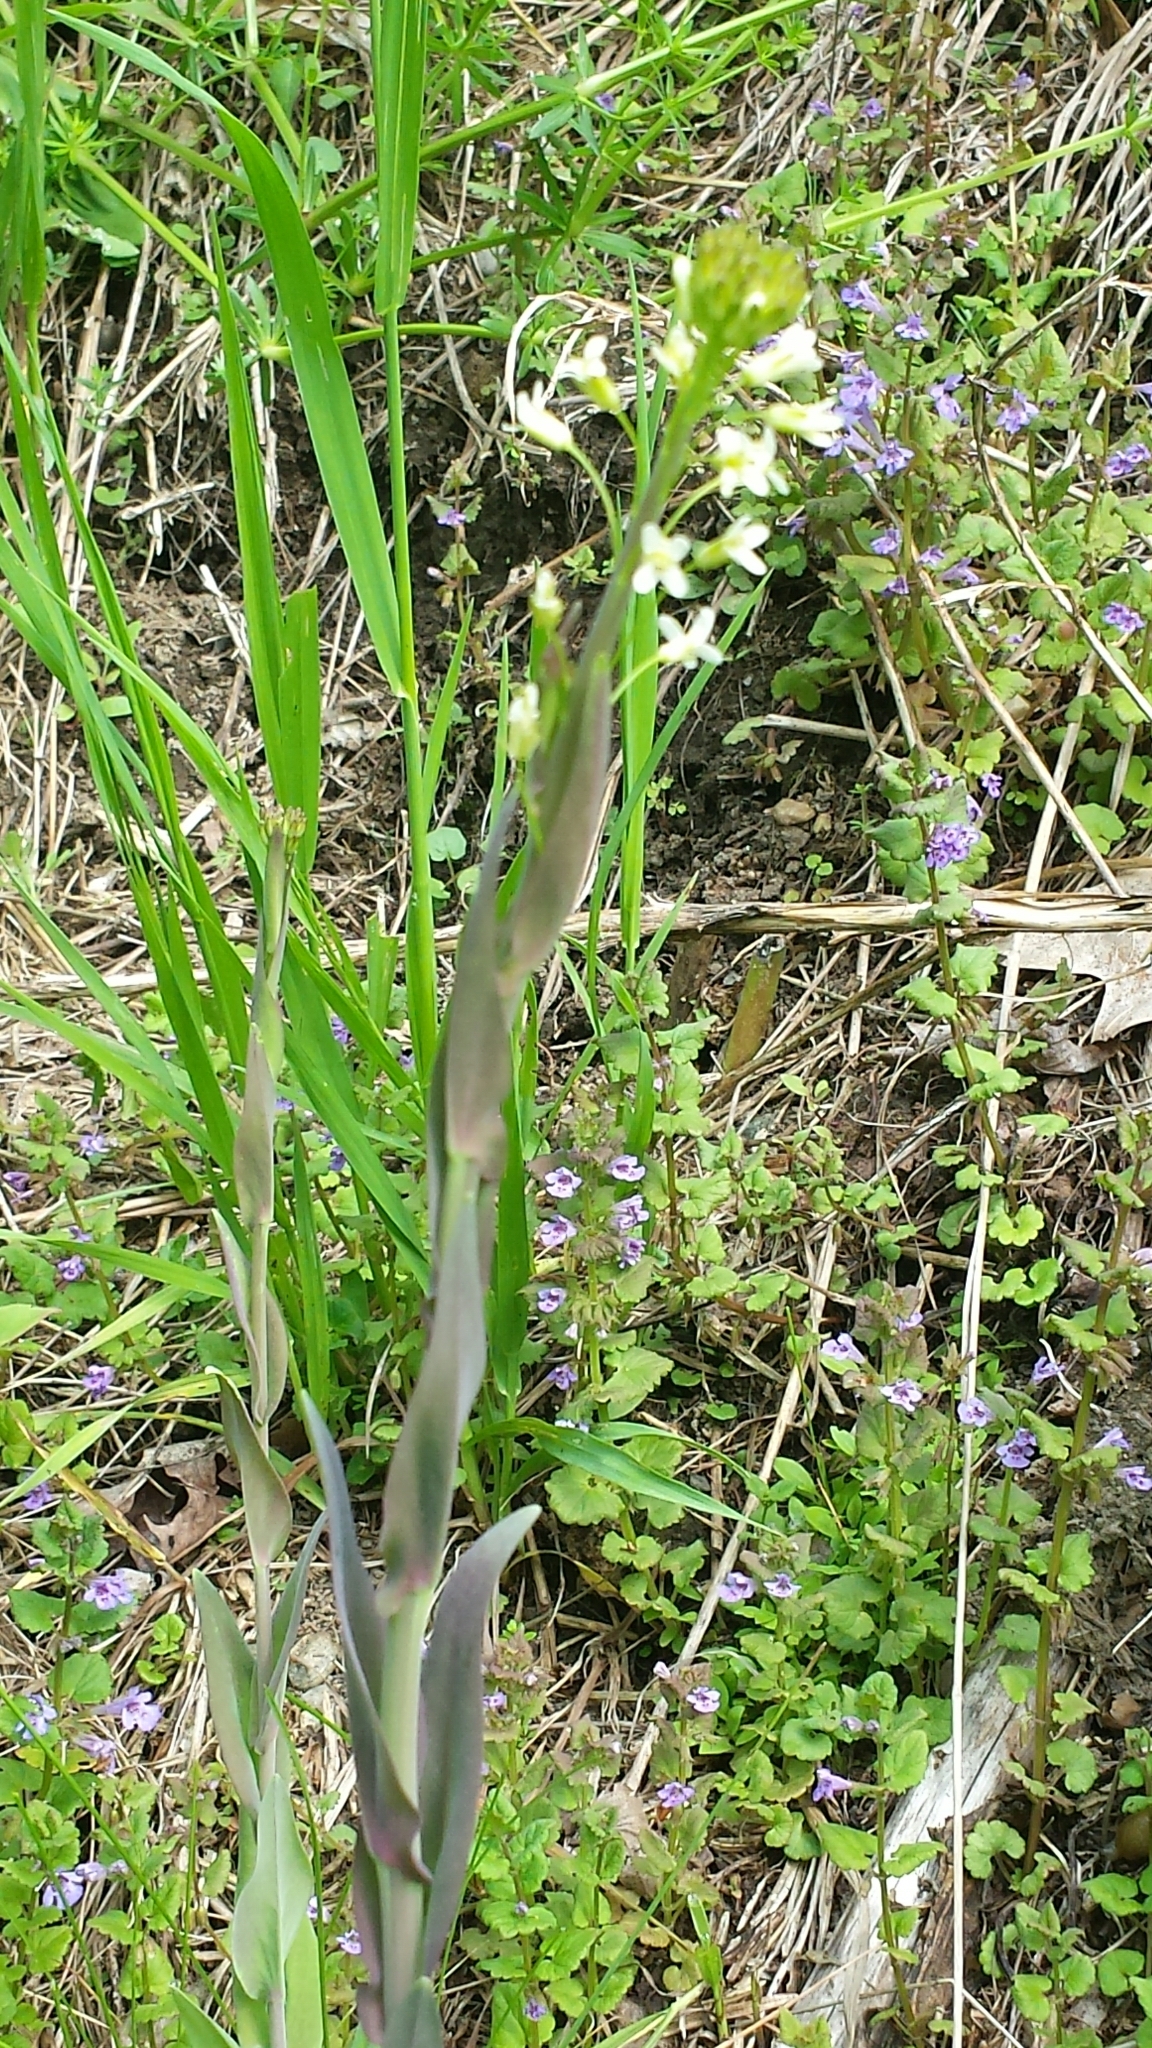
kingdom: Plantae
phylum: Tracheophyta
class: Magnoliopsida
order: Brassicales
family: Brassicaceae
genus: Turritis
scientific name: Turritis glabra
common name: Tower rockcress
